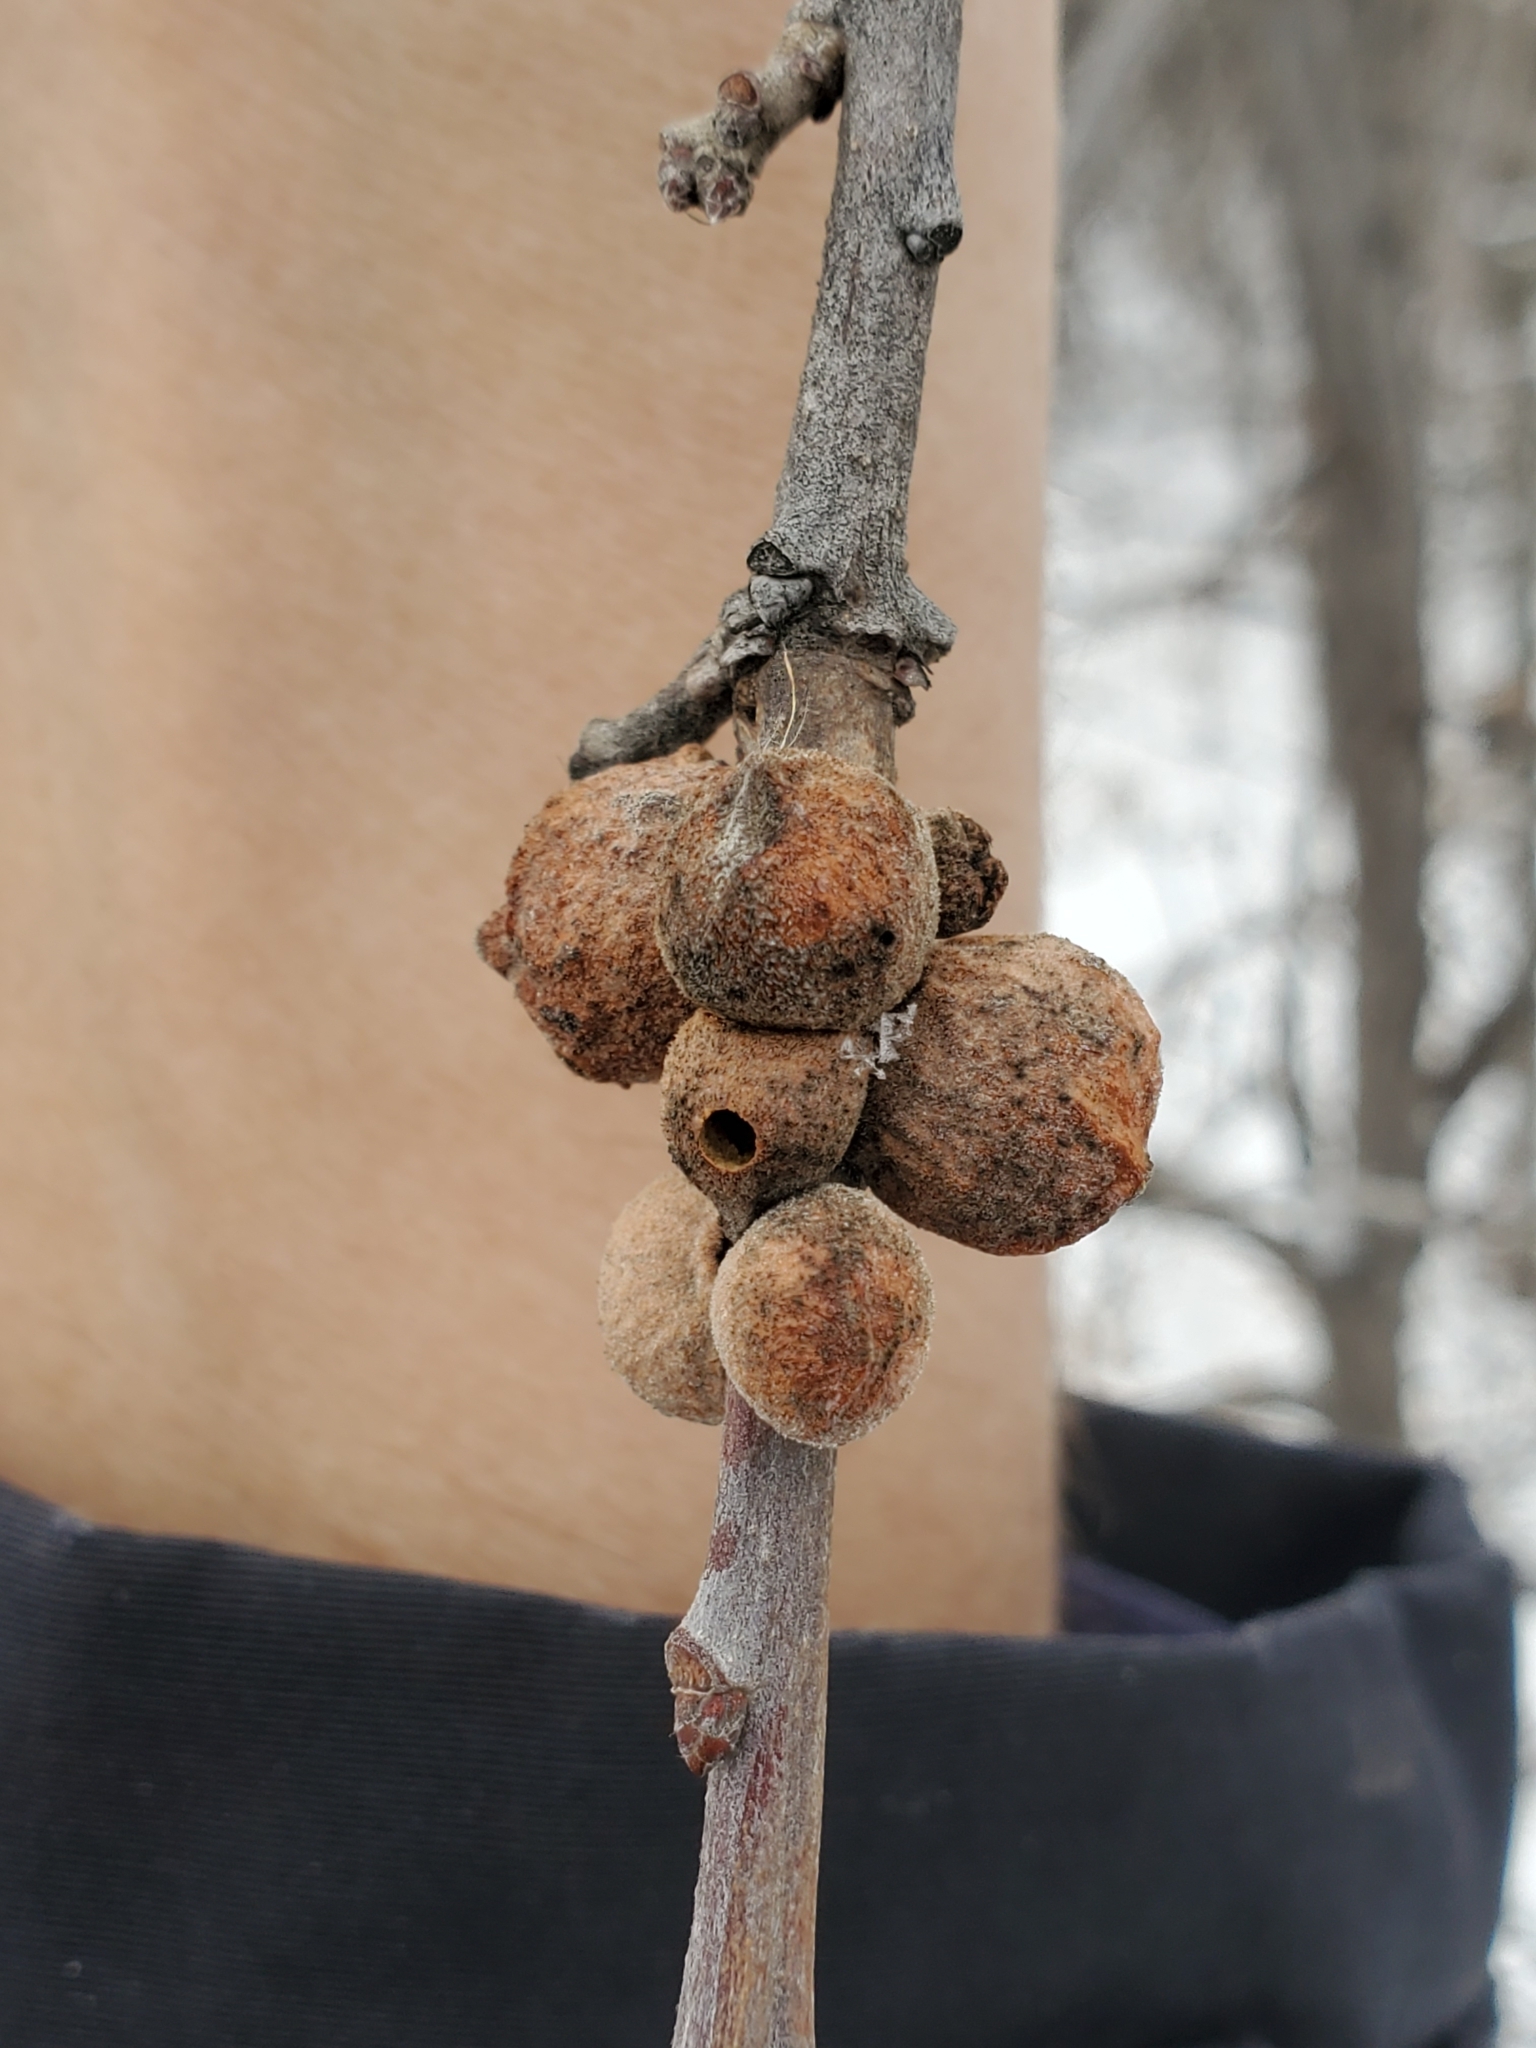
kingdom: Animalia
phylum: Arthropoda
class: Insecta
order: Hymenoptera
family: Cynipidae
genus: Disholcaspis
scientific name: Disholcaspis
